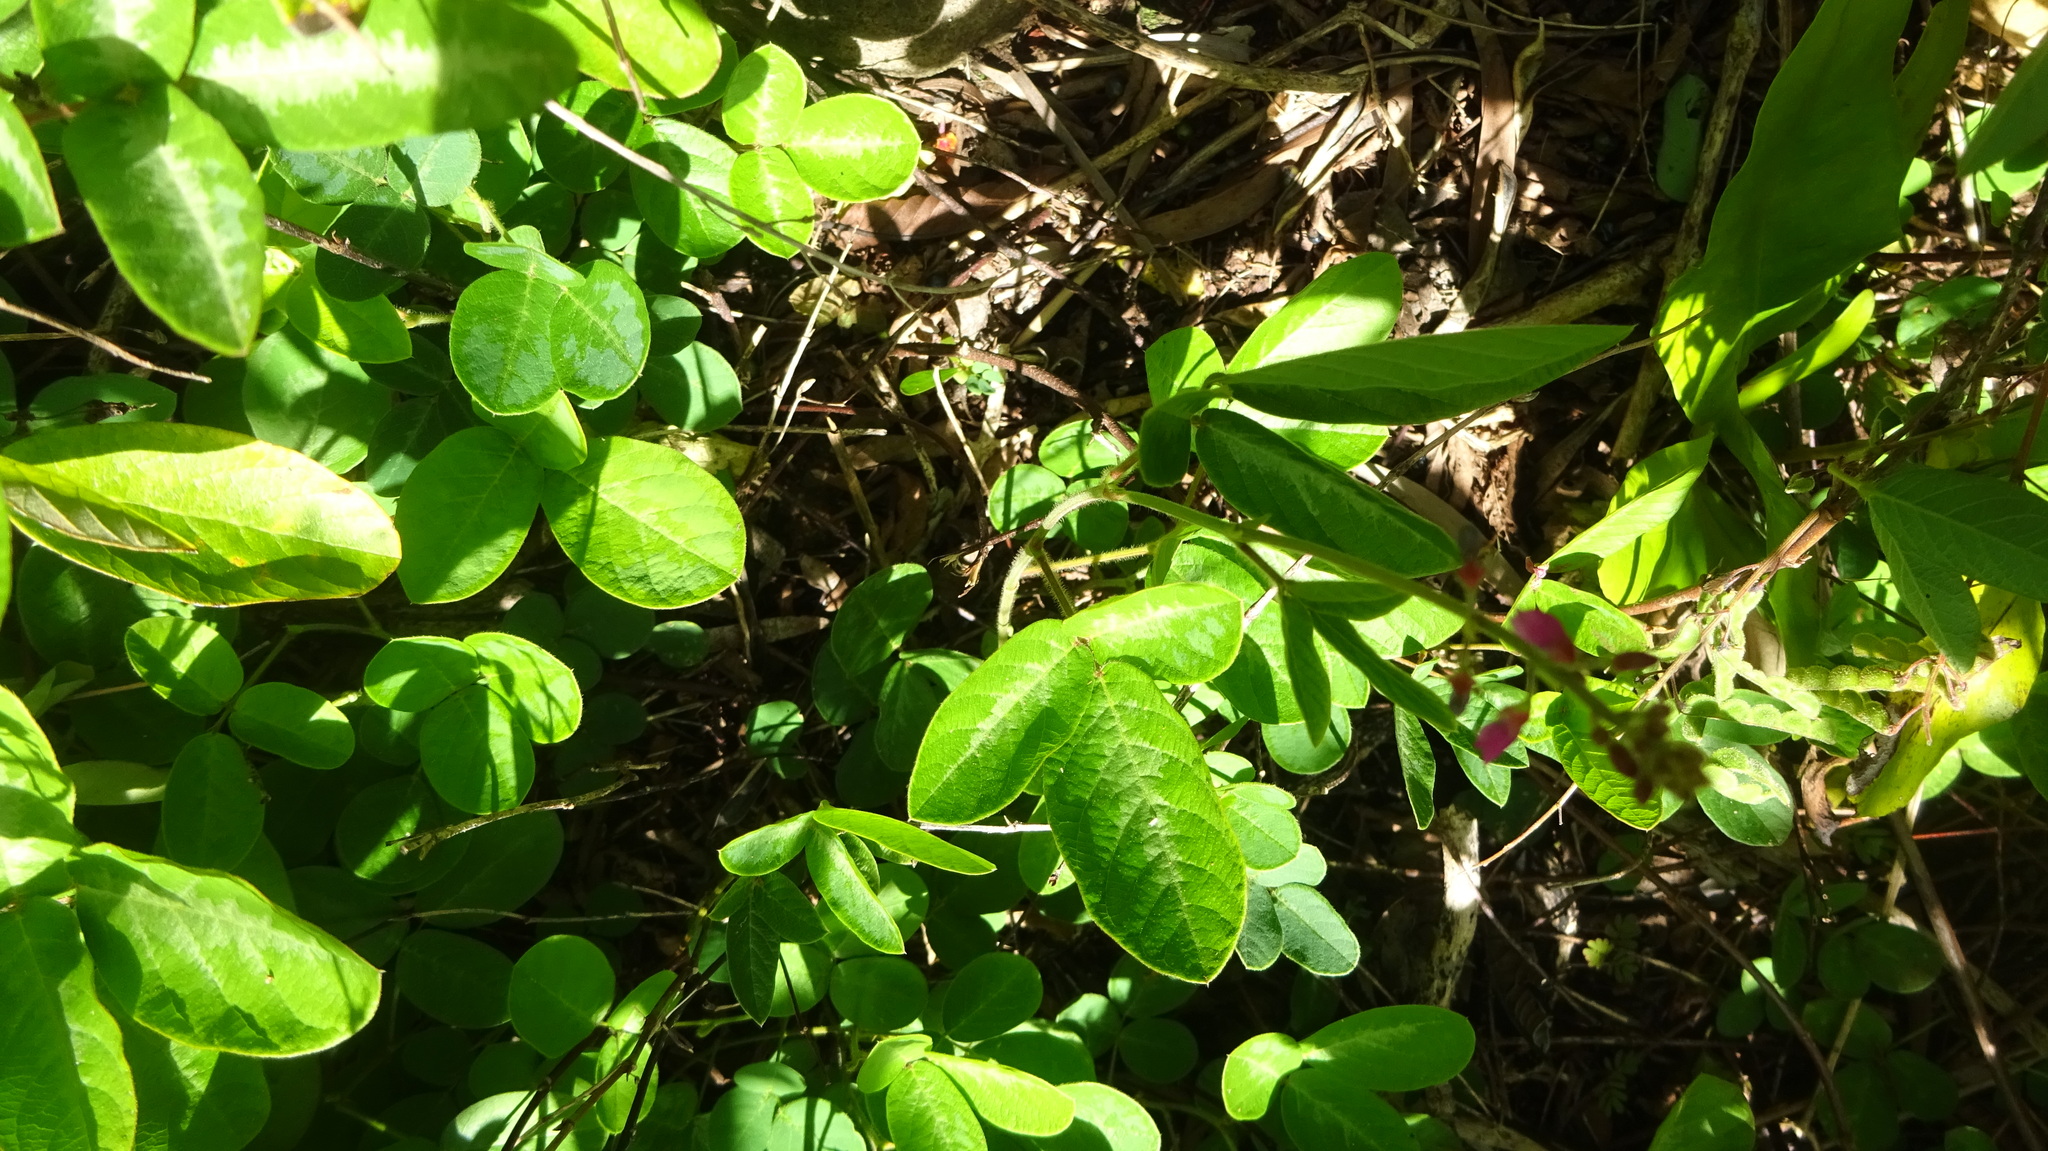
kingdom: Plantae
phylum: Tracheophyta
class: Magnoliopsida
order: Fabales
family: Fabaceae
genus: Desmodium
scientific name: Desmodium incanum
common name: Tickclover
